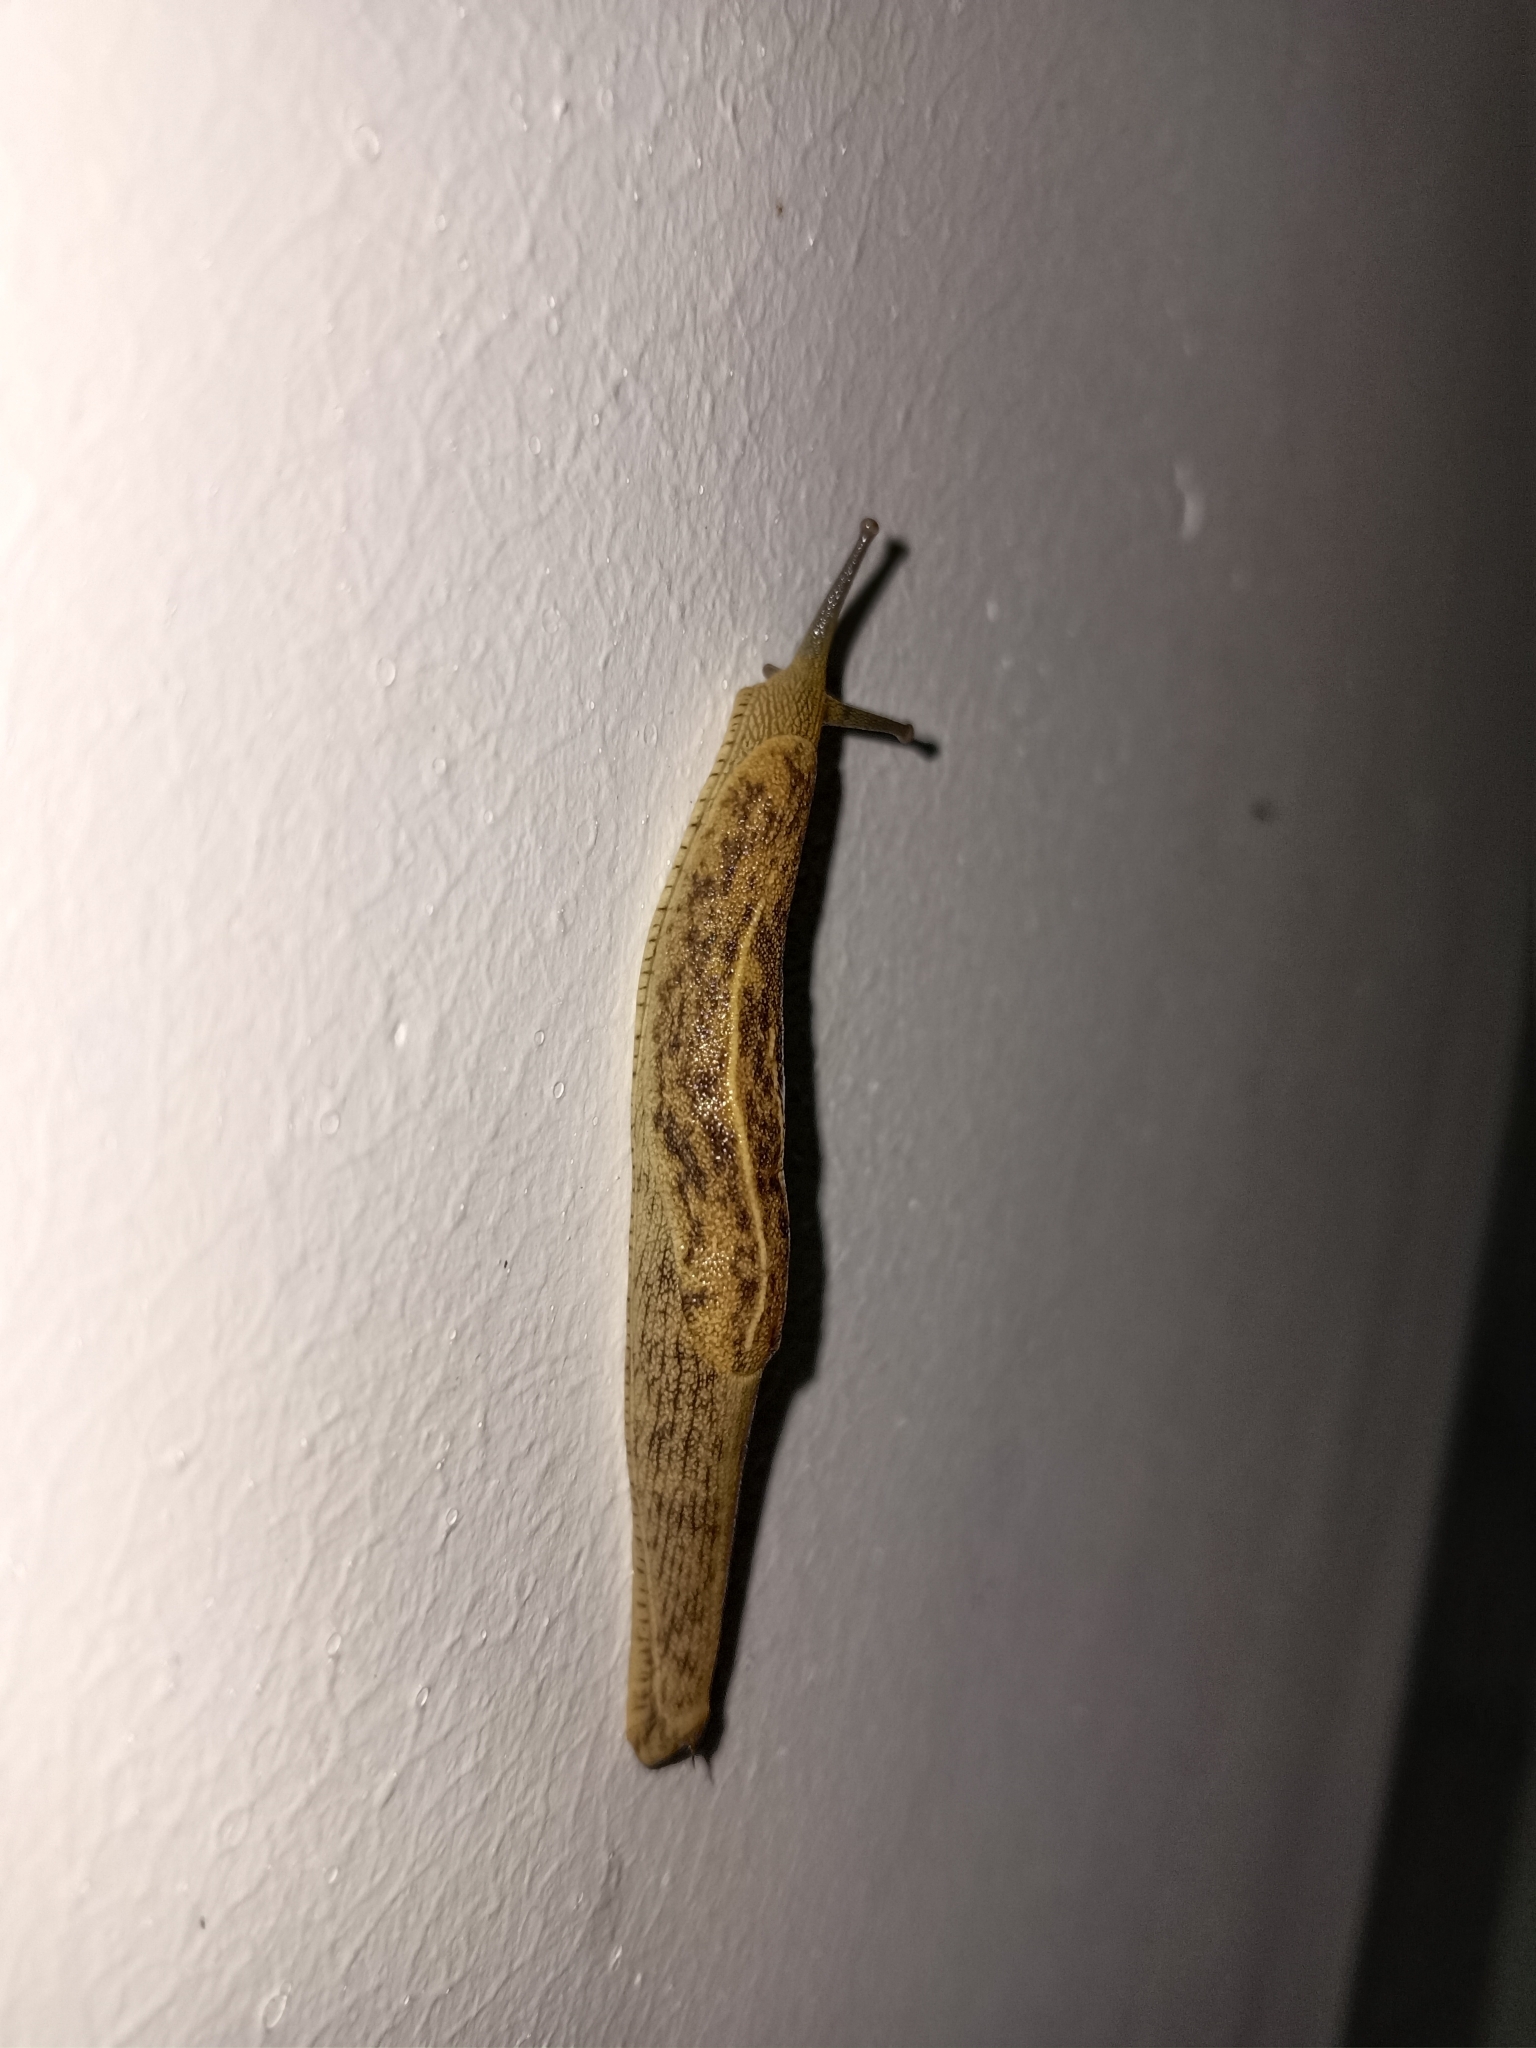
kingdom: Animalia
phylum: Mollusca
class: Gastropoda
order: Stylommatophora
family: Ariophantidae
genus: Mariaella
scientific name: Mariaella dussumieri
